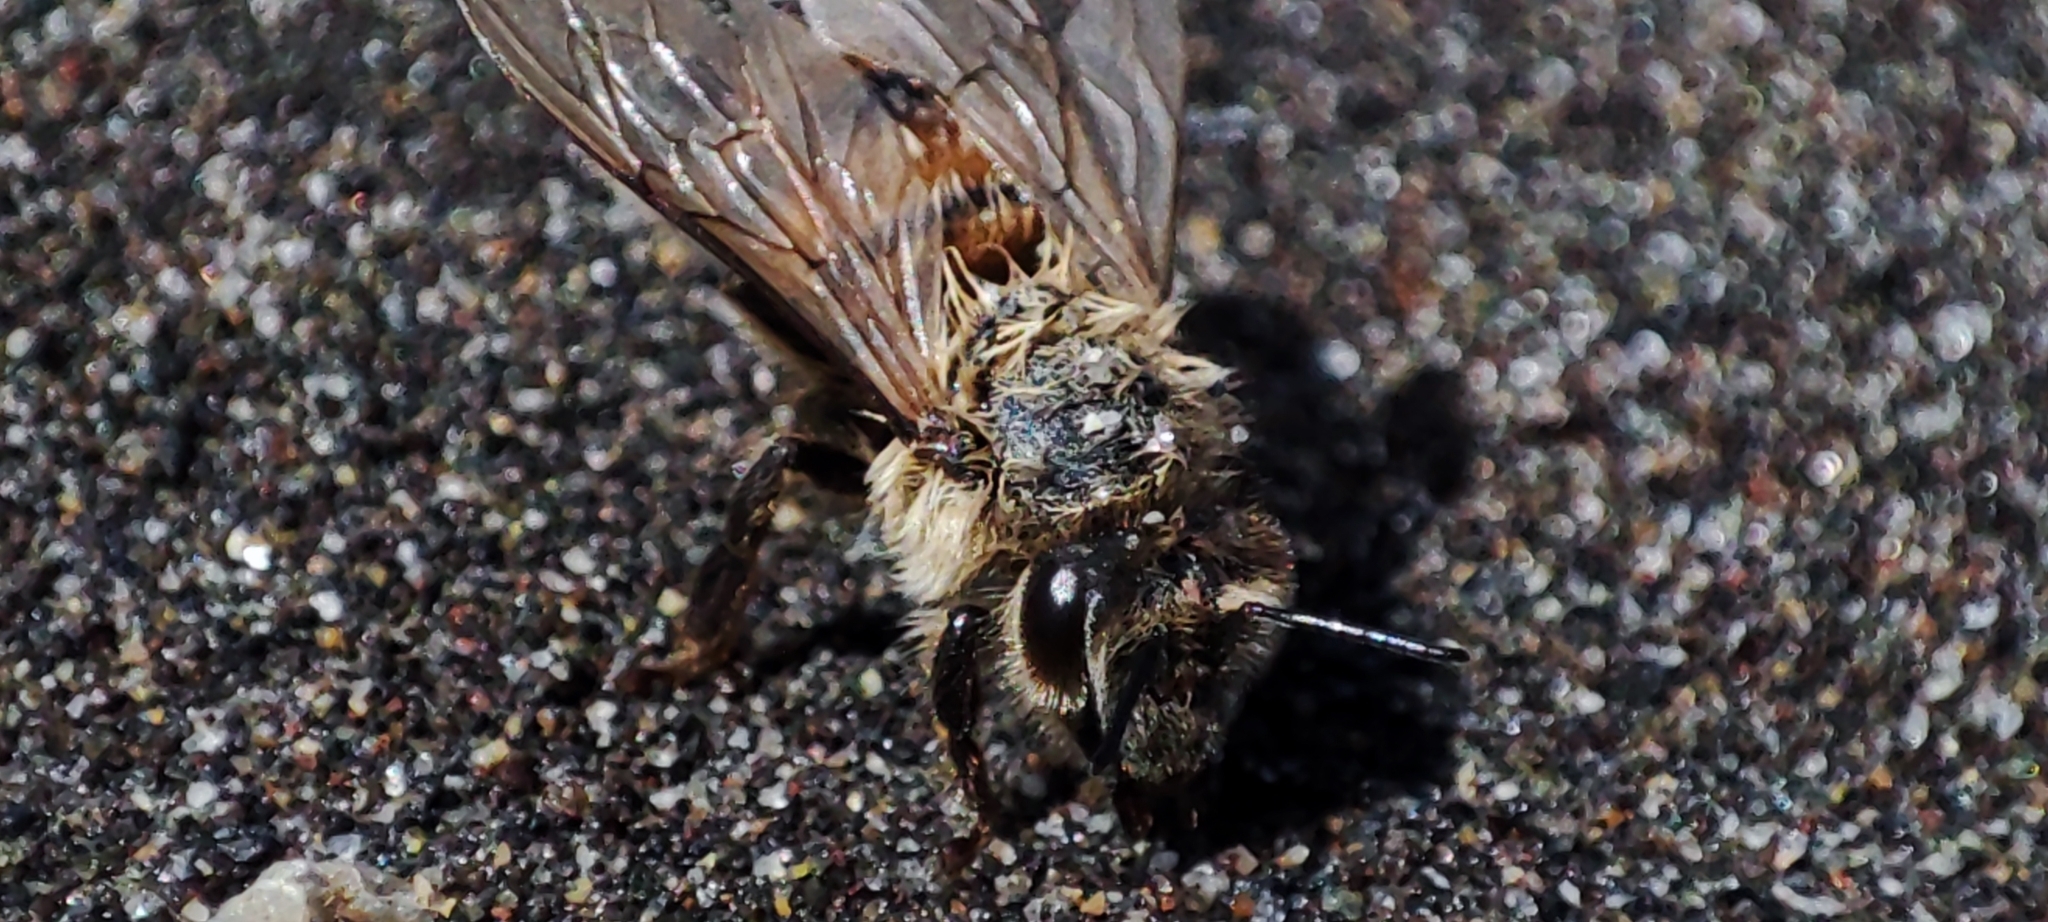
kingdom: Animalia
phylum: Arthropoda
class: Insecta
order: Hymenoptera
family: Apidae
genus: Apis
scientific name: Apis mellifera
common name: Honey bee
